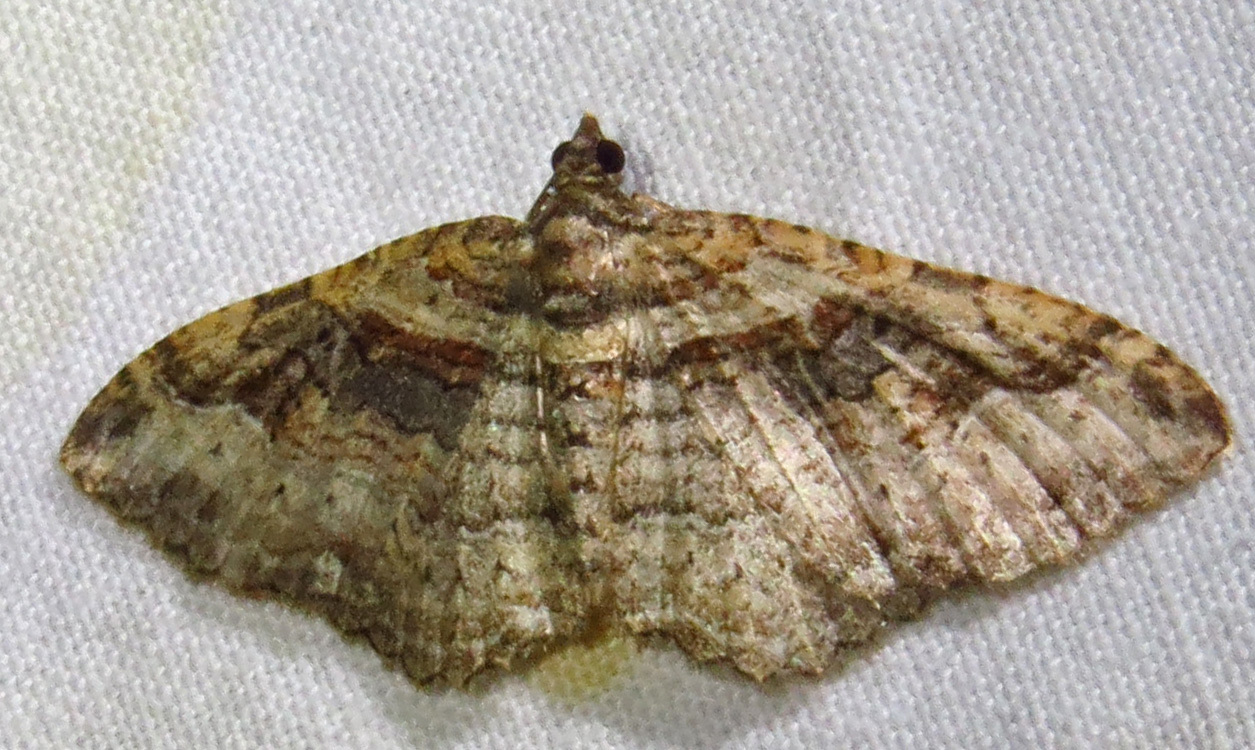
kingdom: Animalia
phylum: Arthropoda
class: Insecta
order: Lepidoptera
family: Geometridae
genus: Costaconvexa
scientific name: Costaconvexa centrostrigaria
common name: Bent-line carpet
